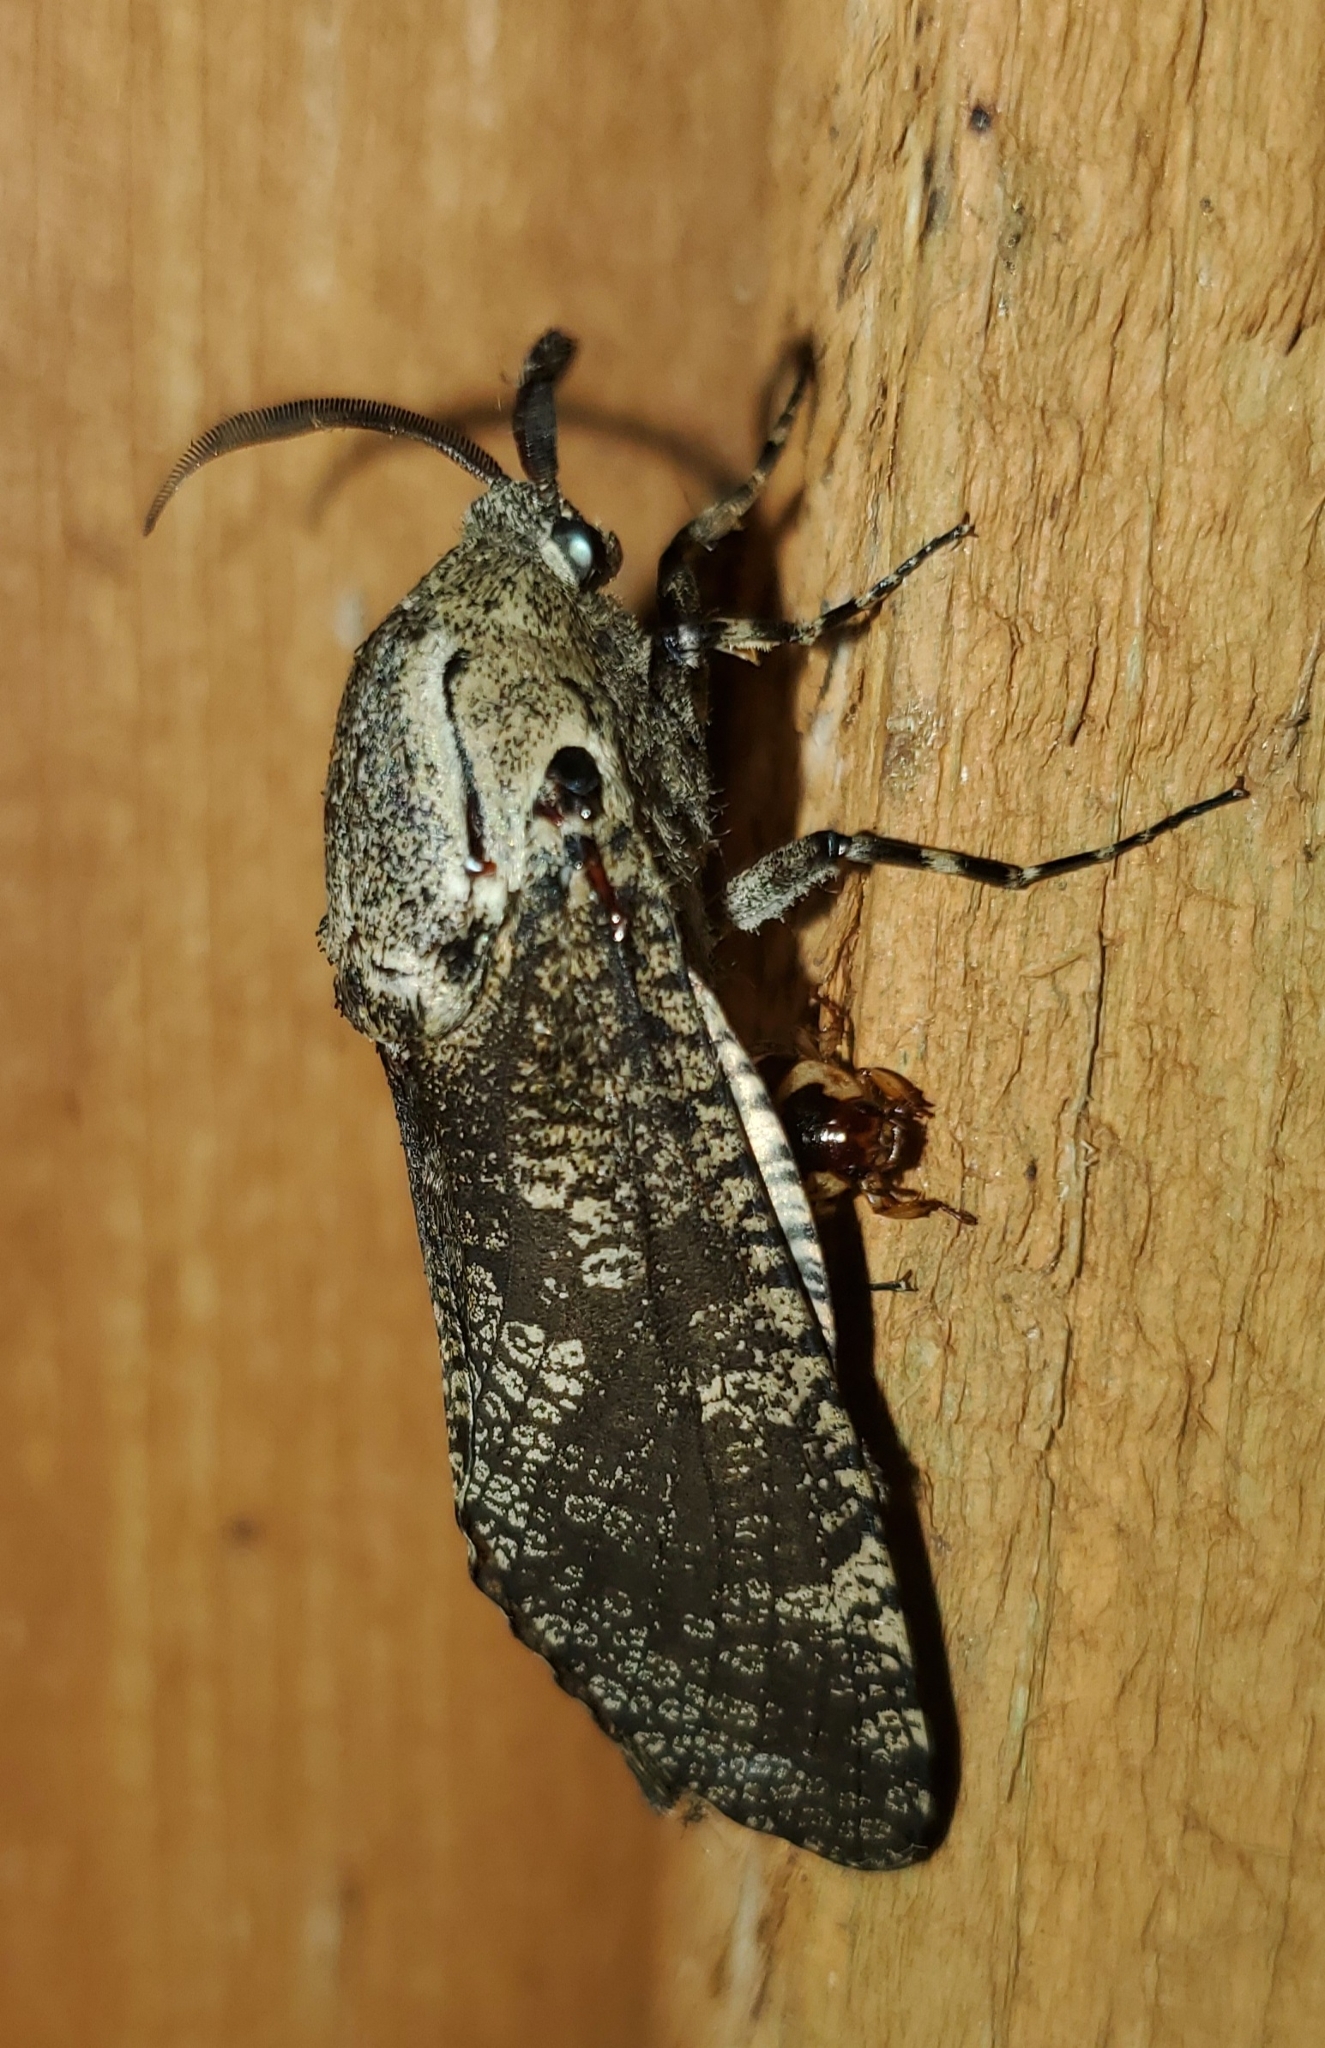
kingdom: Animalia
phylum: Arthropoda
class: Insecta
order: Lepidoptera
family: Cossidae
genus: Prionoxystus
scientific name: Prionoxystus robiniae
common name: Carpenterworm
